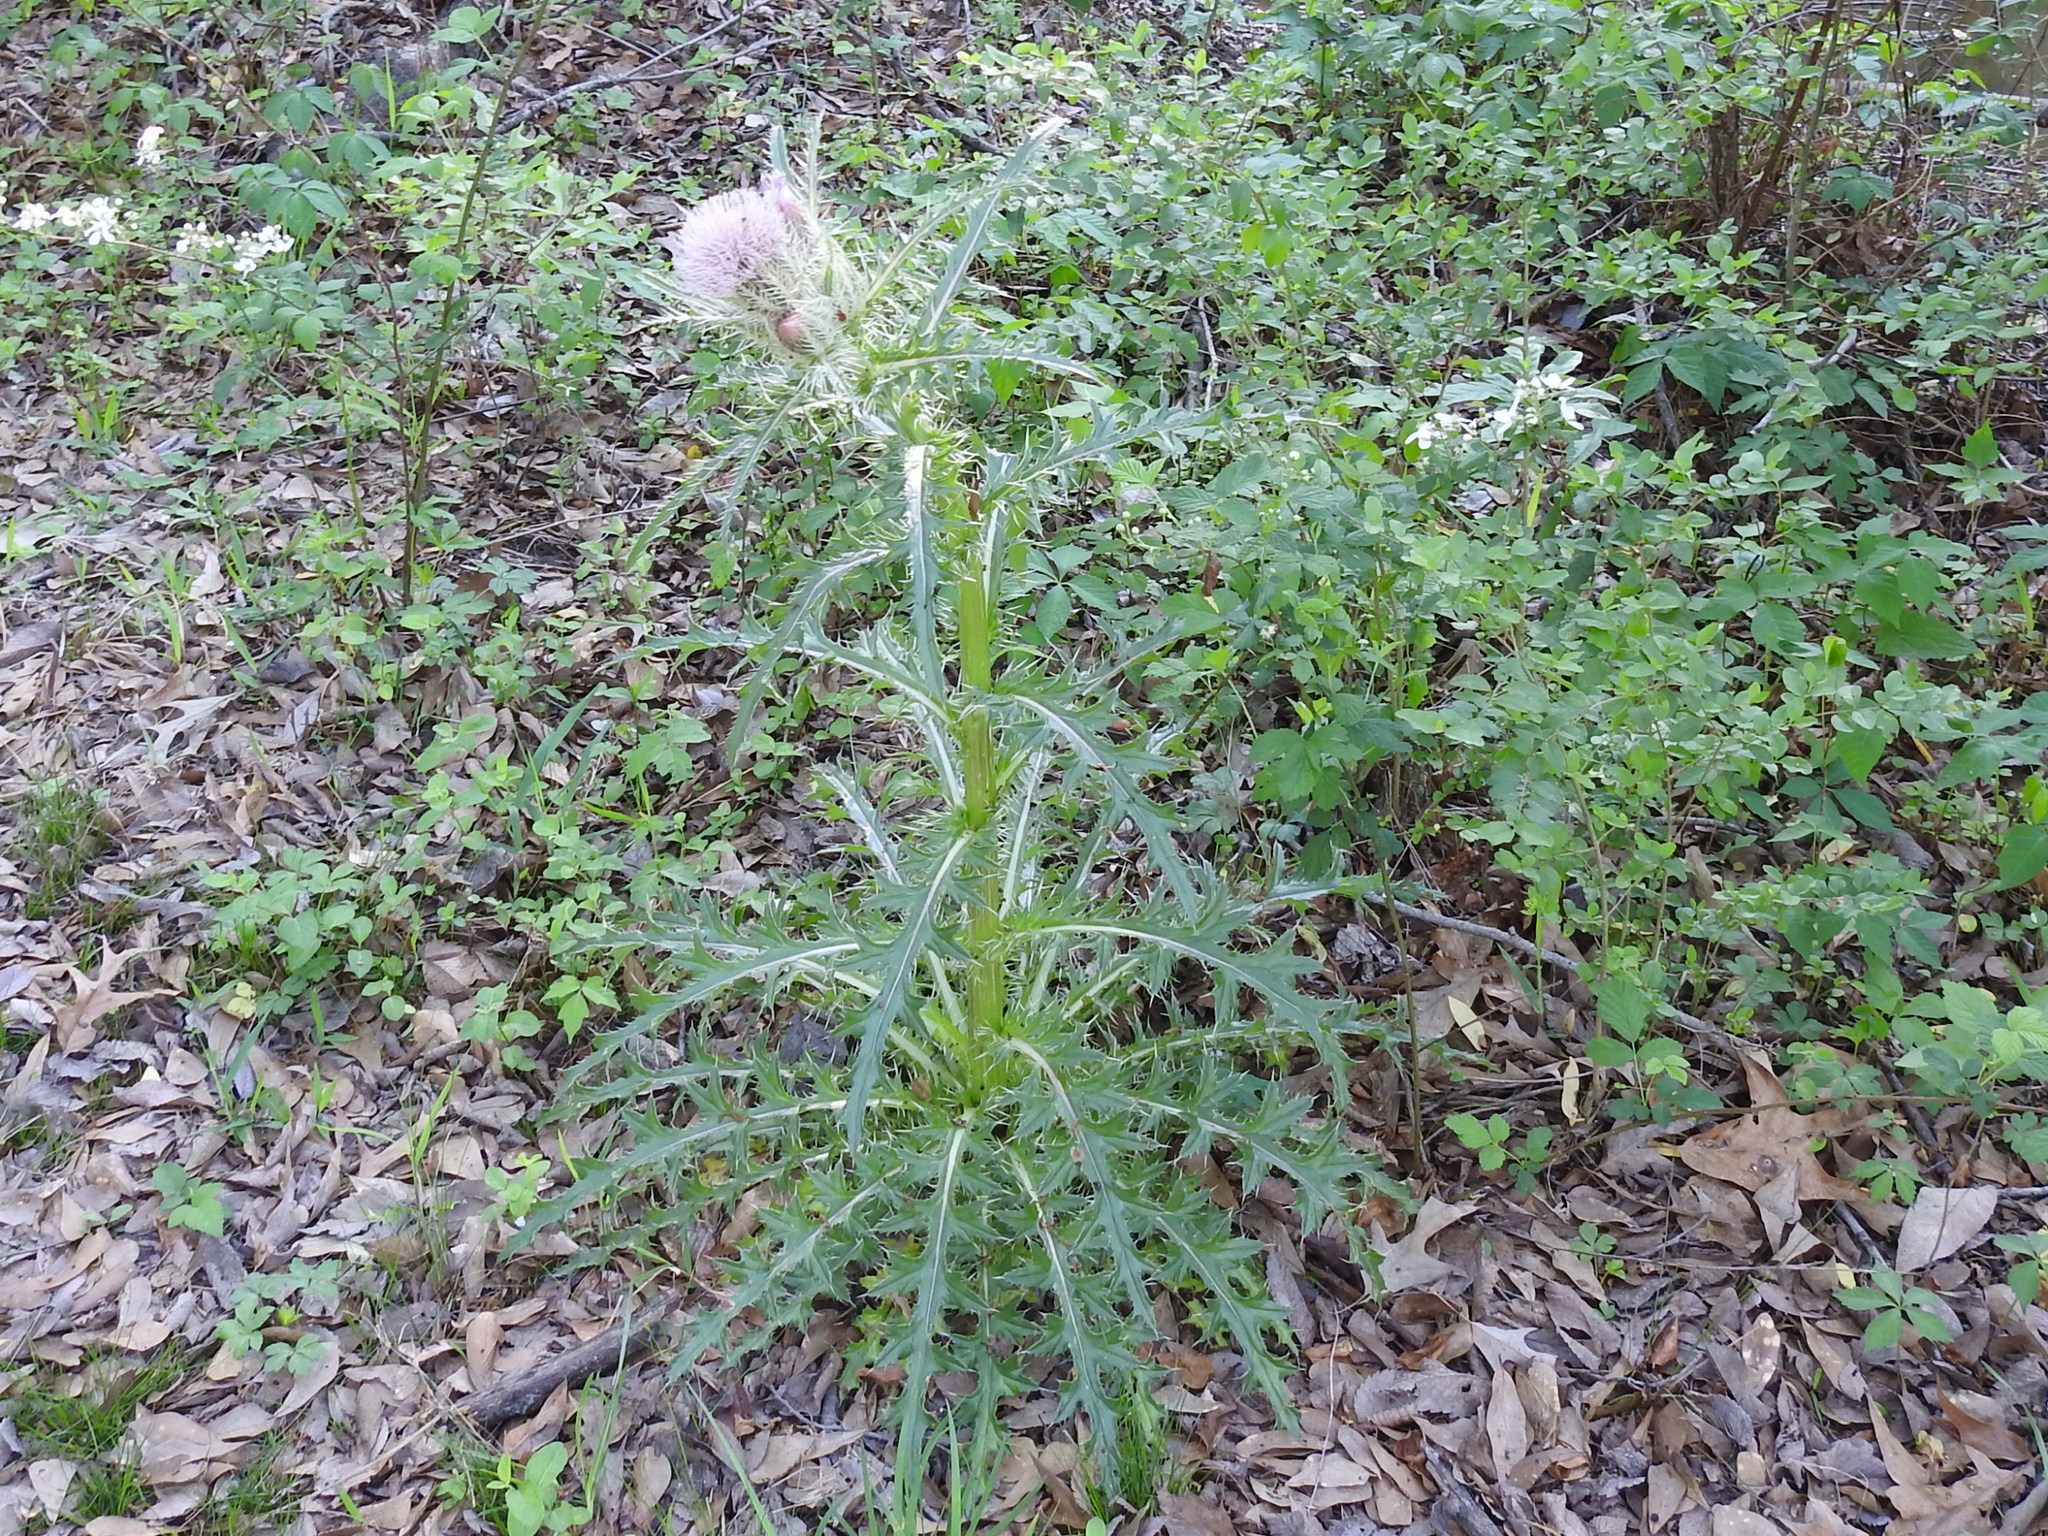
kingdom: Plantae
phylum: Tracheophyta
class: Magnoliopsida
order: Asterales
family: Asteraceae
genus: Cirsium
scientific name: Cirsium horridulum
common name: Bristly thistle
